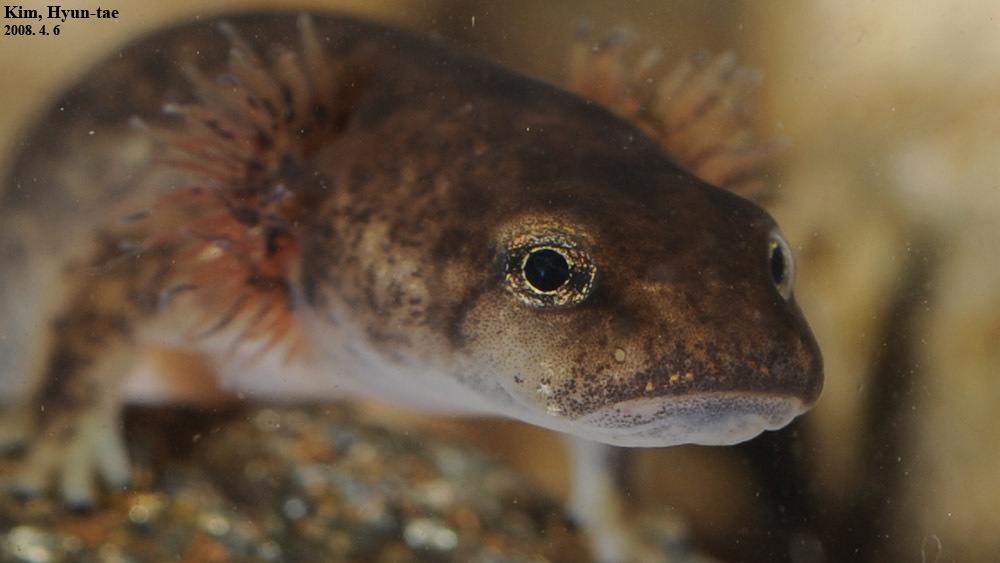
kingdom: Animalia
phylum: Chordata
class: Amphibia
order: Caudata
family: Hynobiidae
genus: Onychodactylus
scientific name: Onychodactylus koreanus
